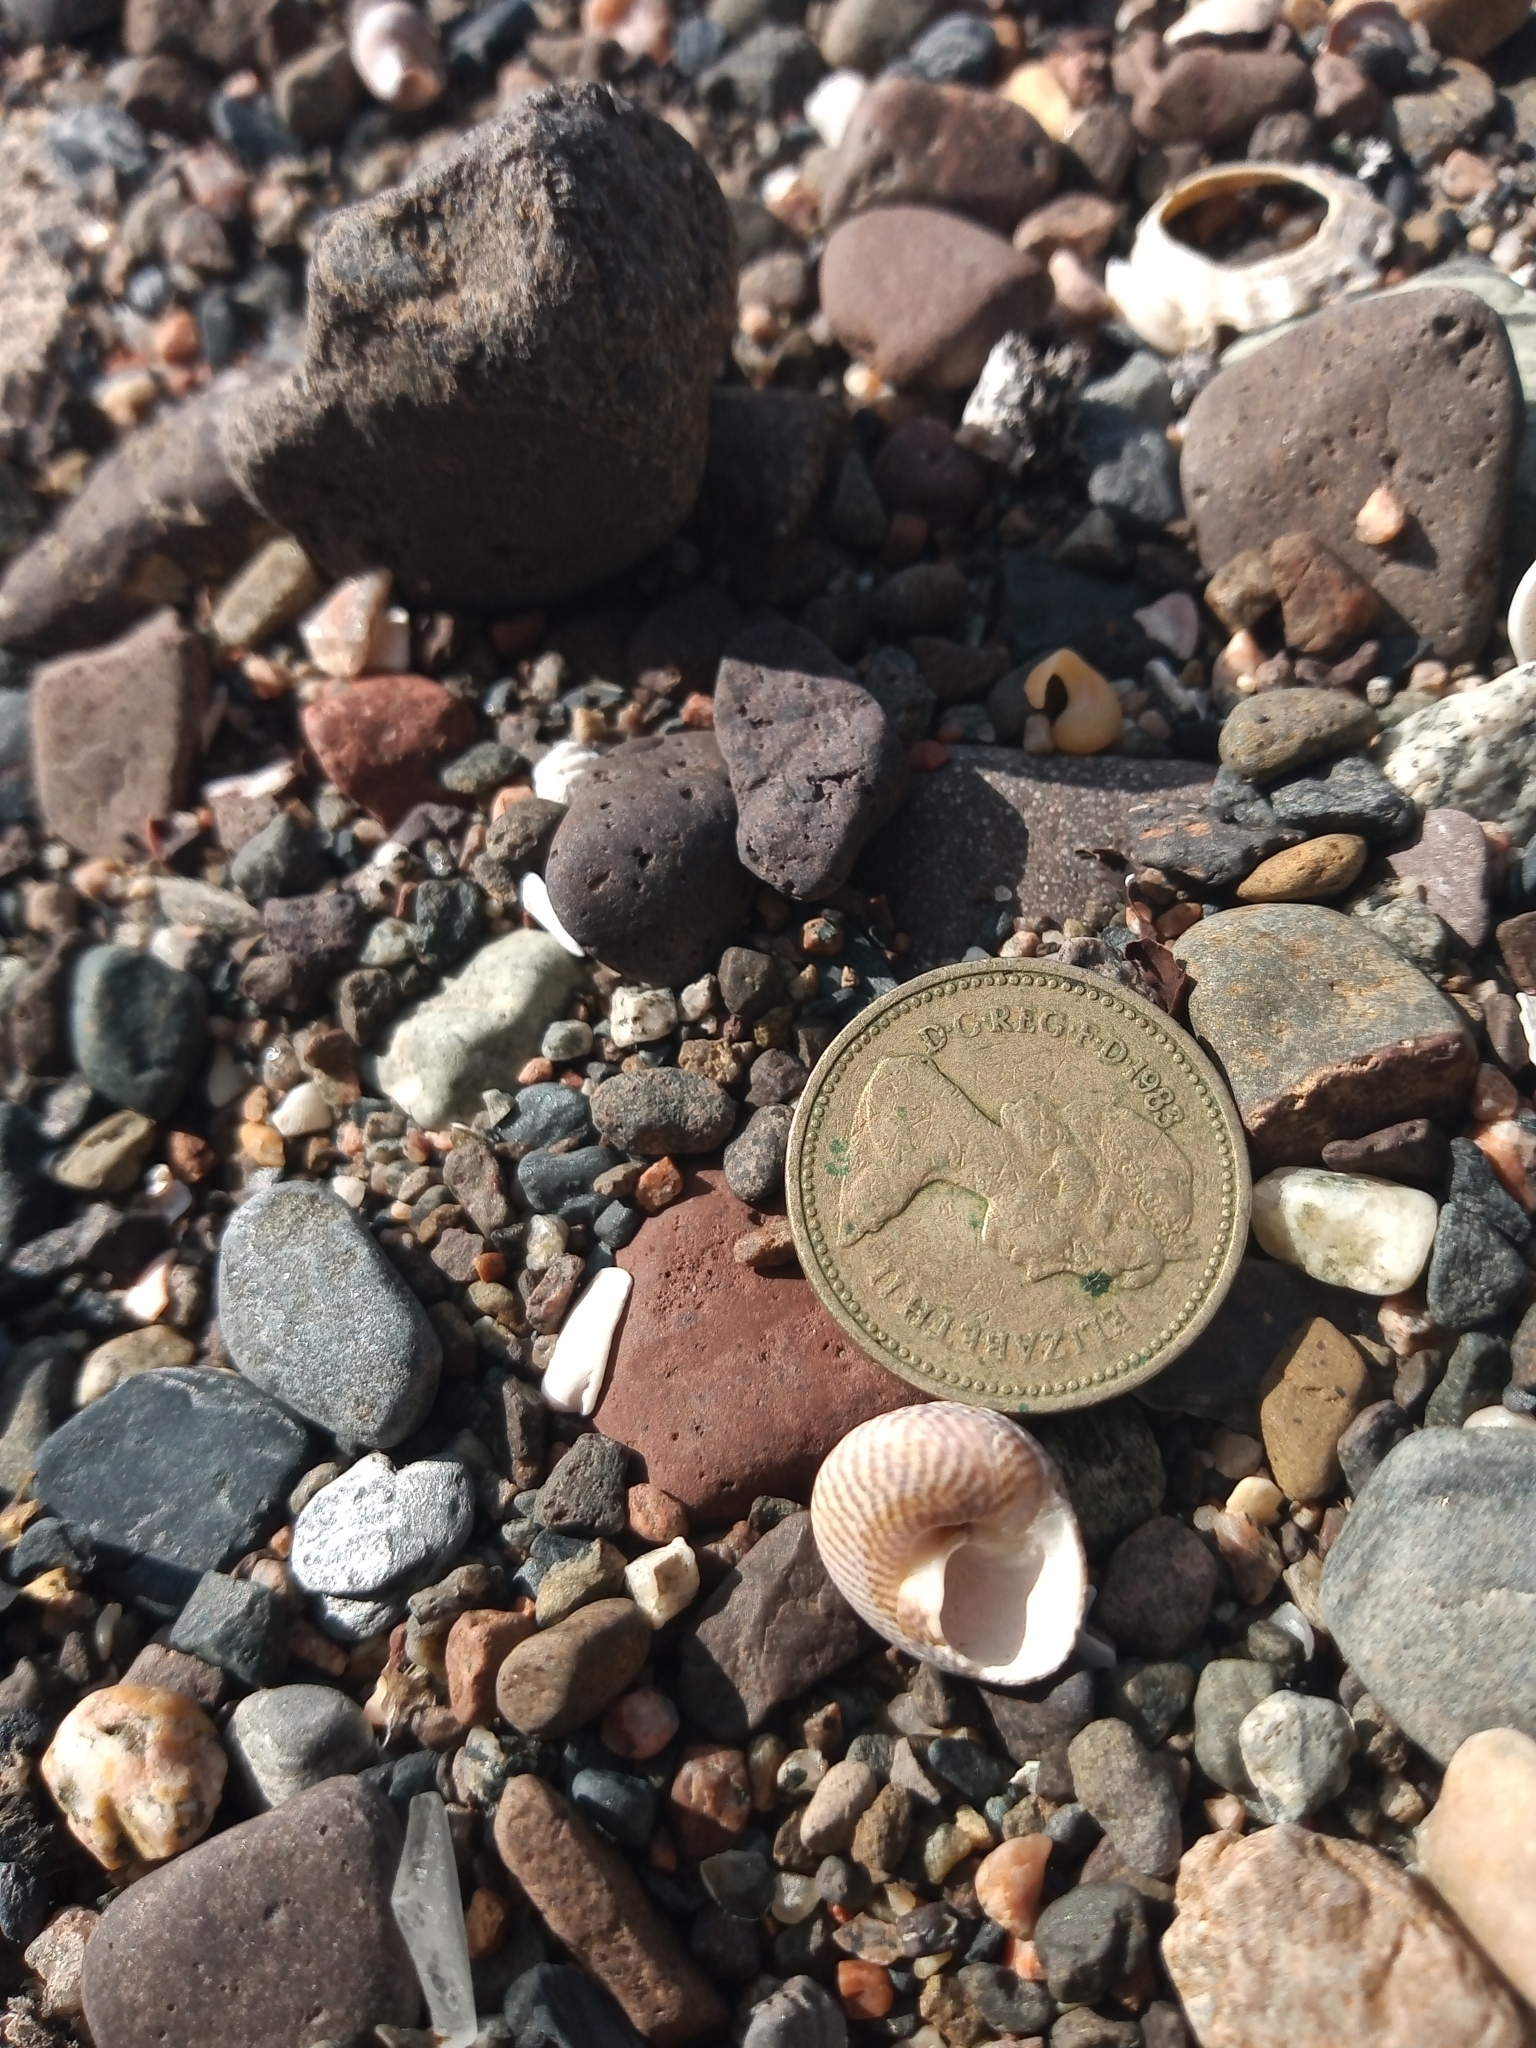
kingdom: Animalia
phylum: Mollusca
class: Gastropoda
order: Trochida
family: Trochidae
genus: Steromphala
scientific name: Steromphala cineraria
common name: Grey top shell
